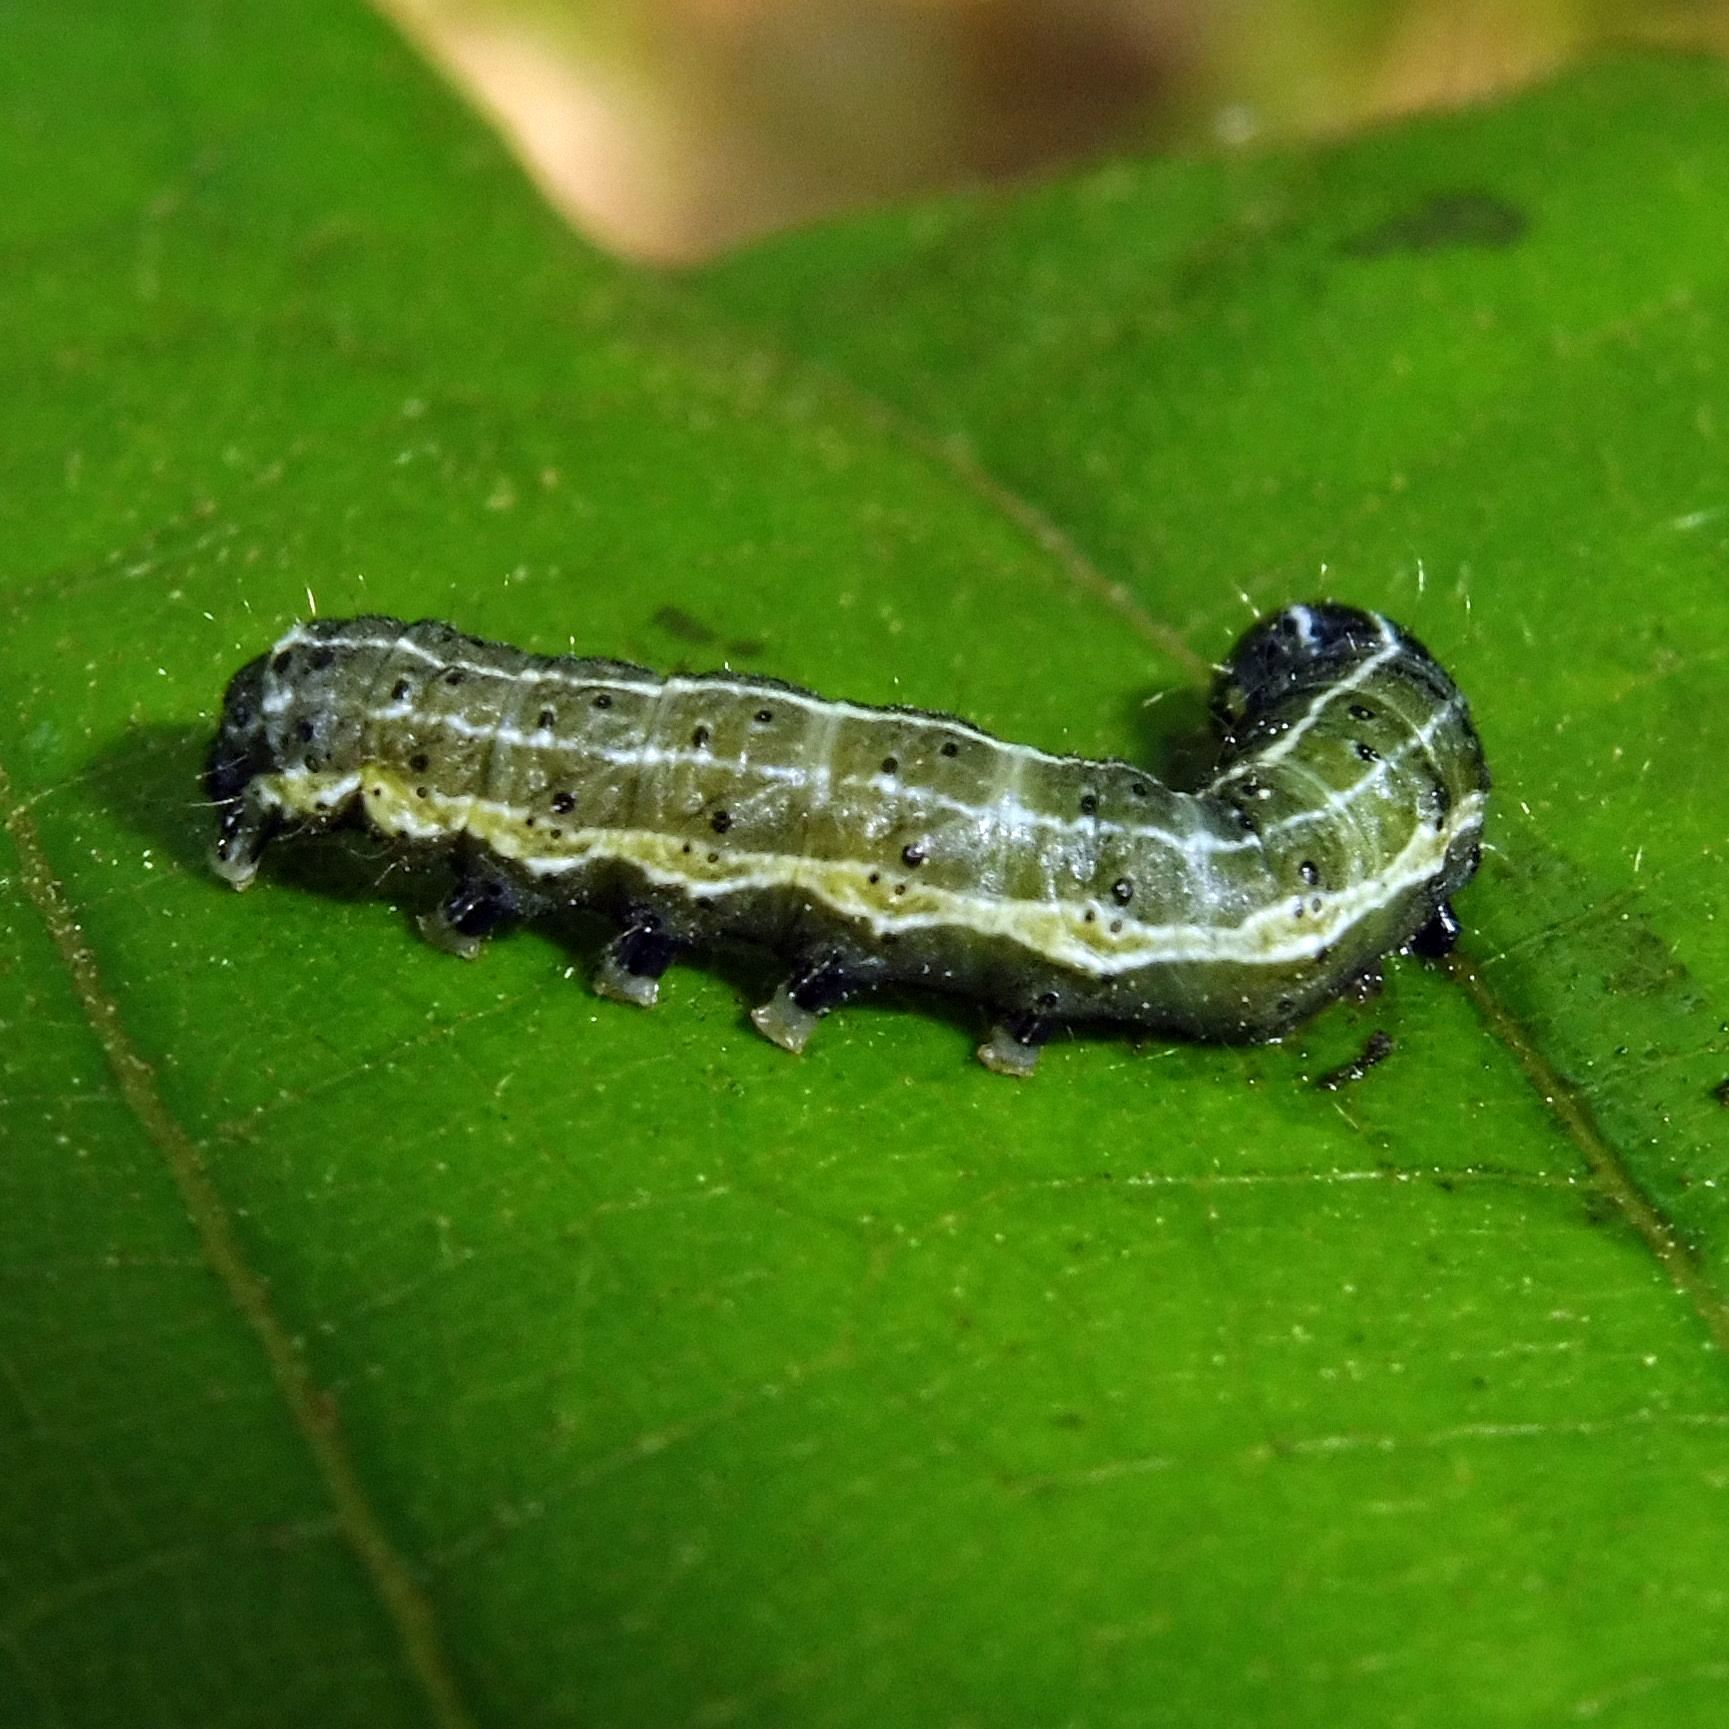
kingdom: Animalia
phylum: Arthropoda
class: Insecta
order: Lepidoptera
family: Noctuidae
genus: Orthosia
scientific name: Orthosia cruda
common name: Small quaker
